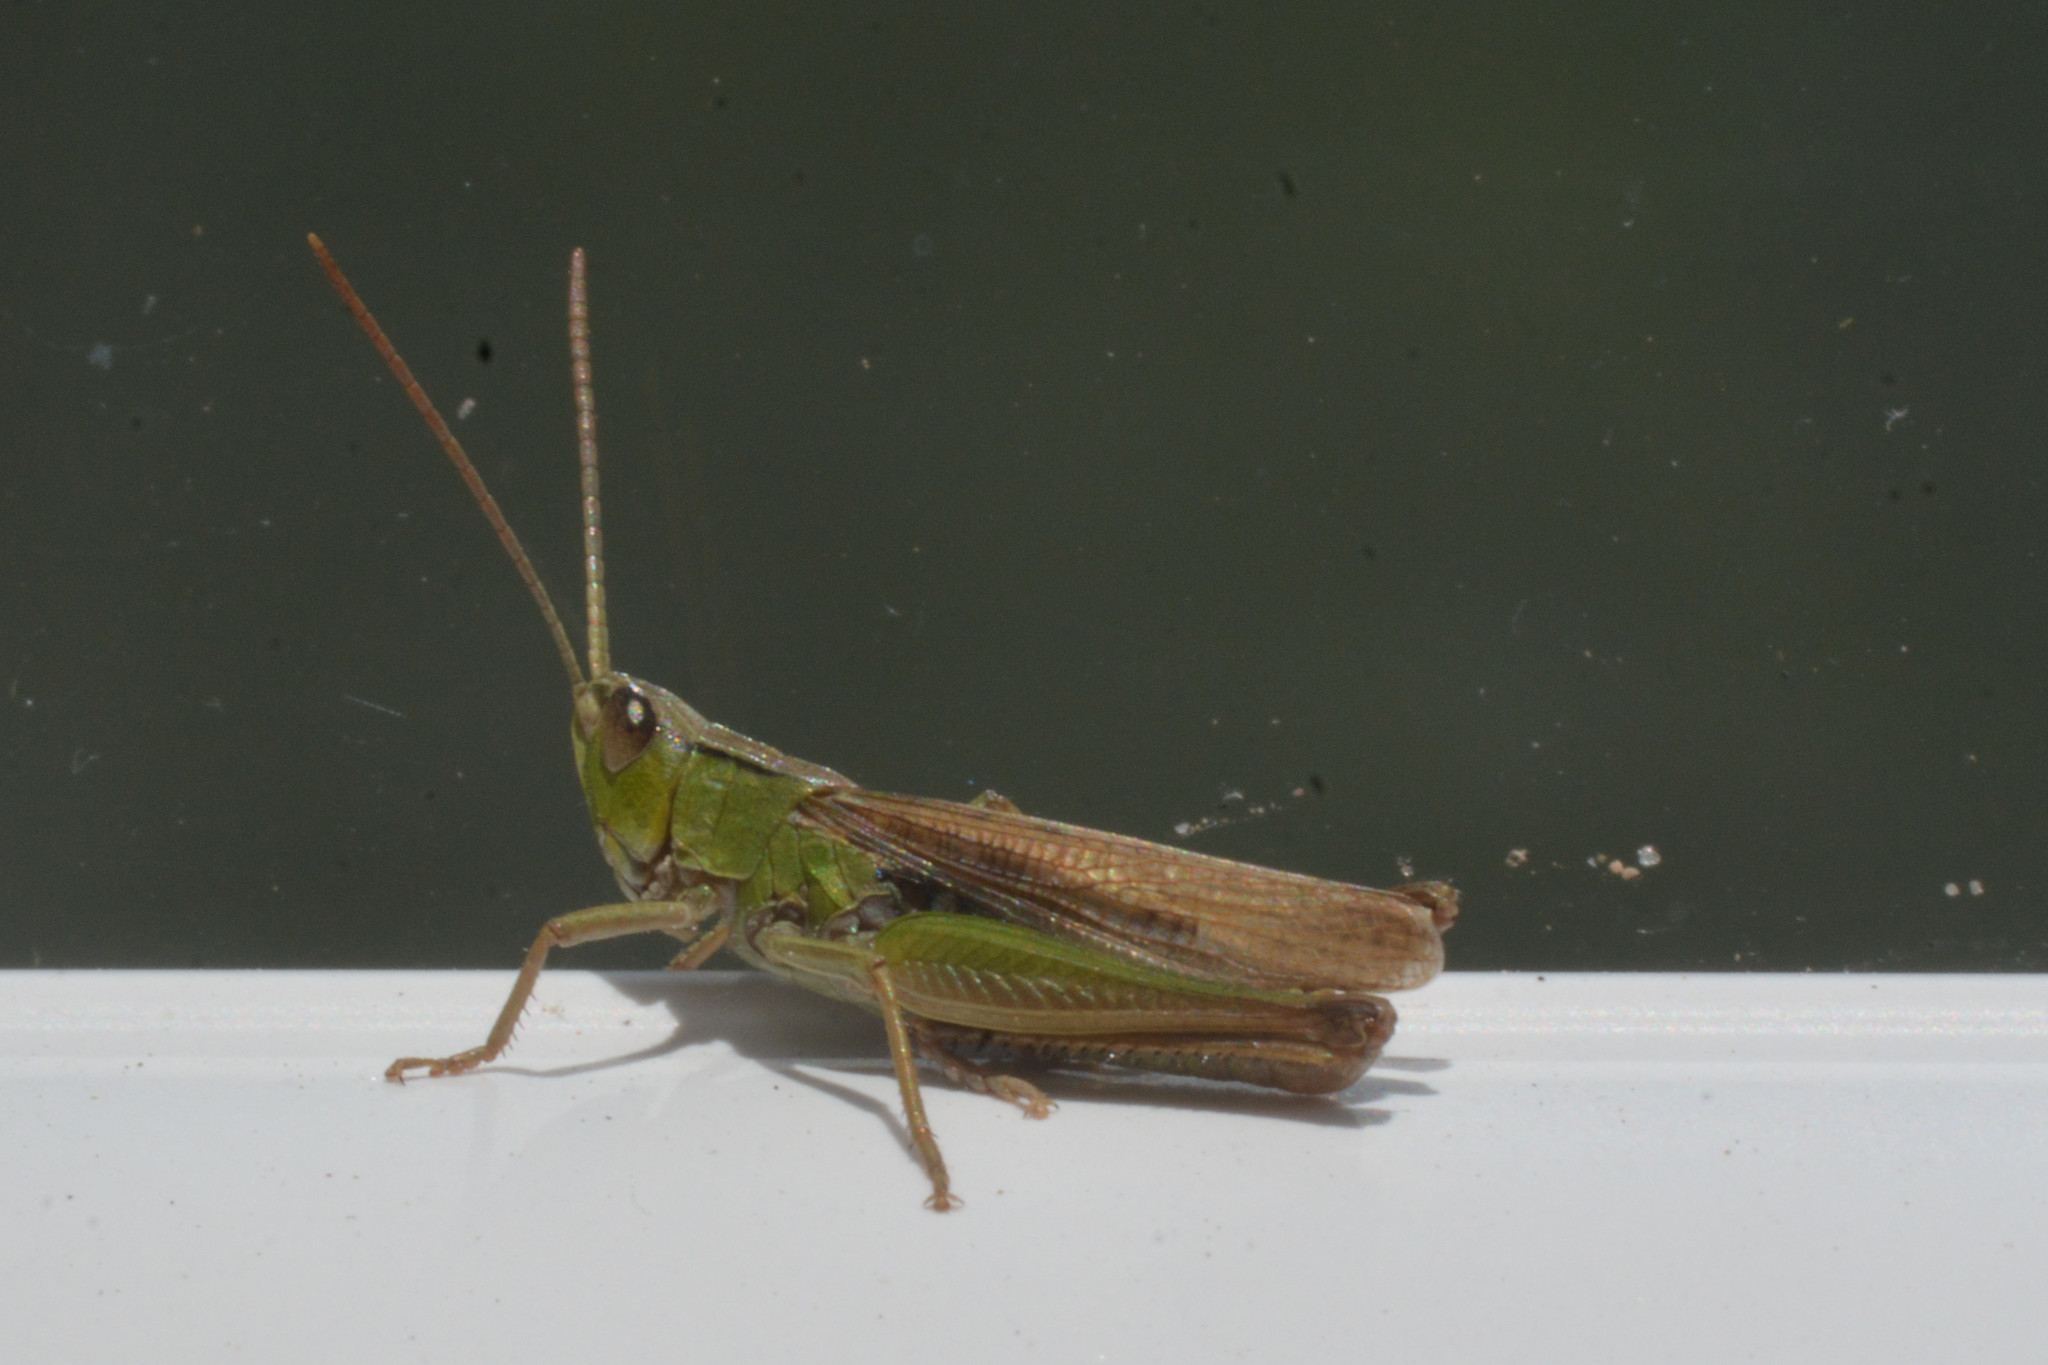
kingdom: Animalia
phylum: Arthropoda
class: Insecta
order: Orthoptera
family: Acrididae
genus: Chorthippus
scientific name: Chorthippus albomarginatus
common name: Lesser marsh grasshopper
